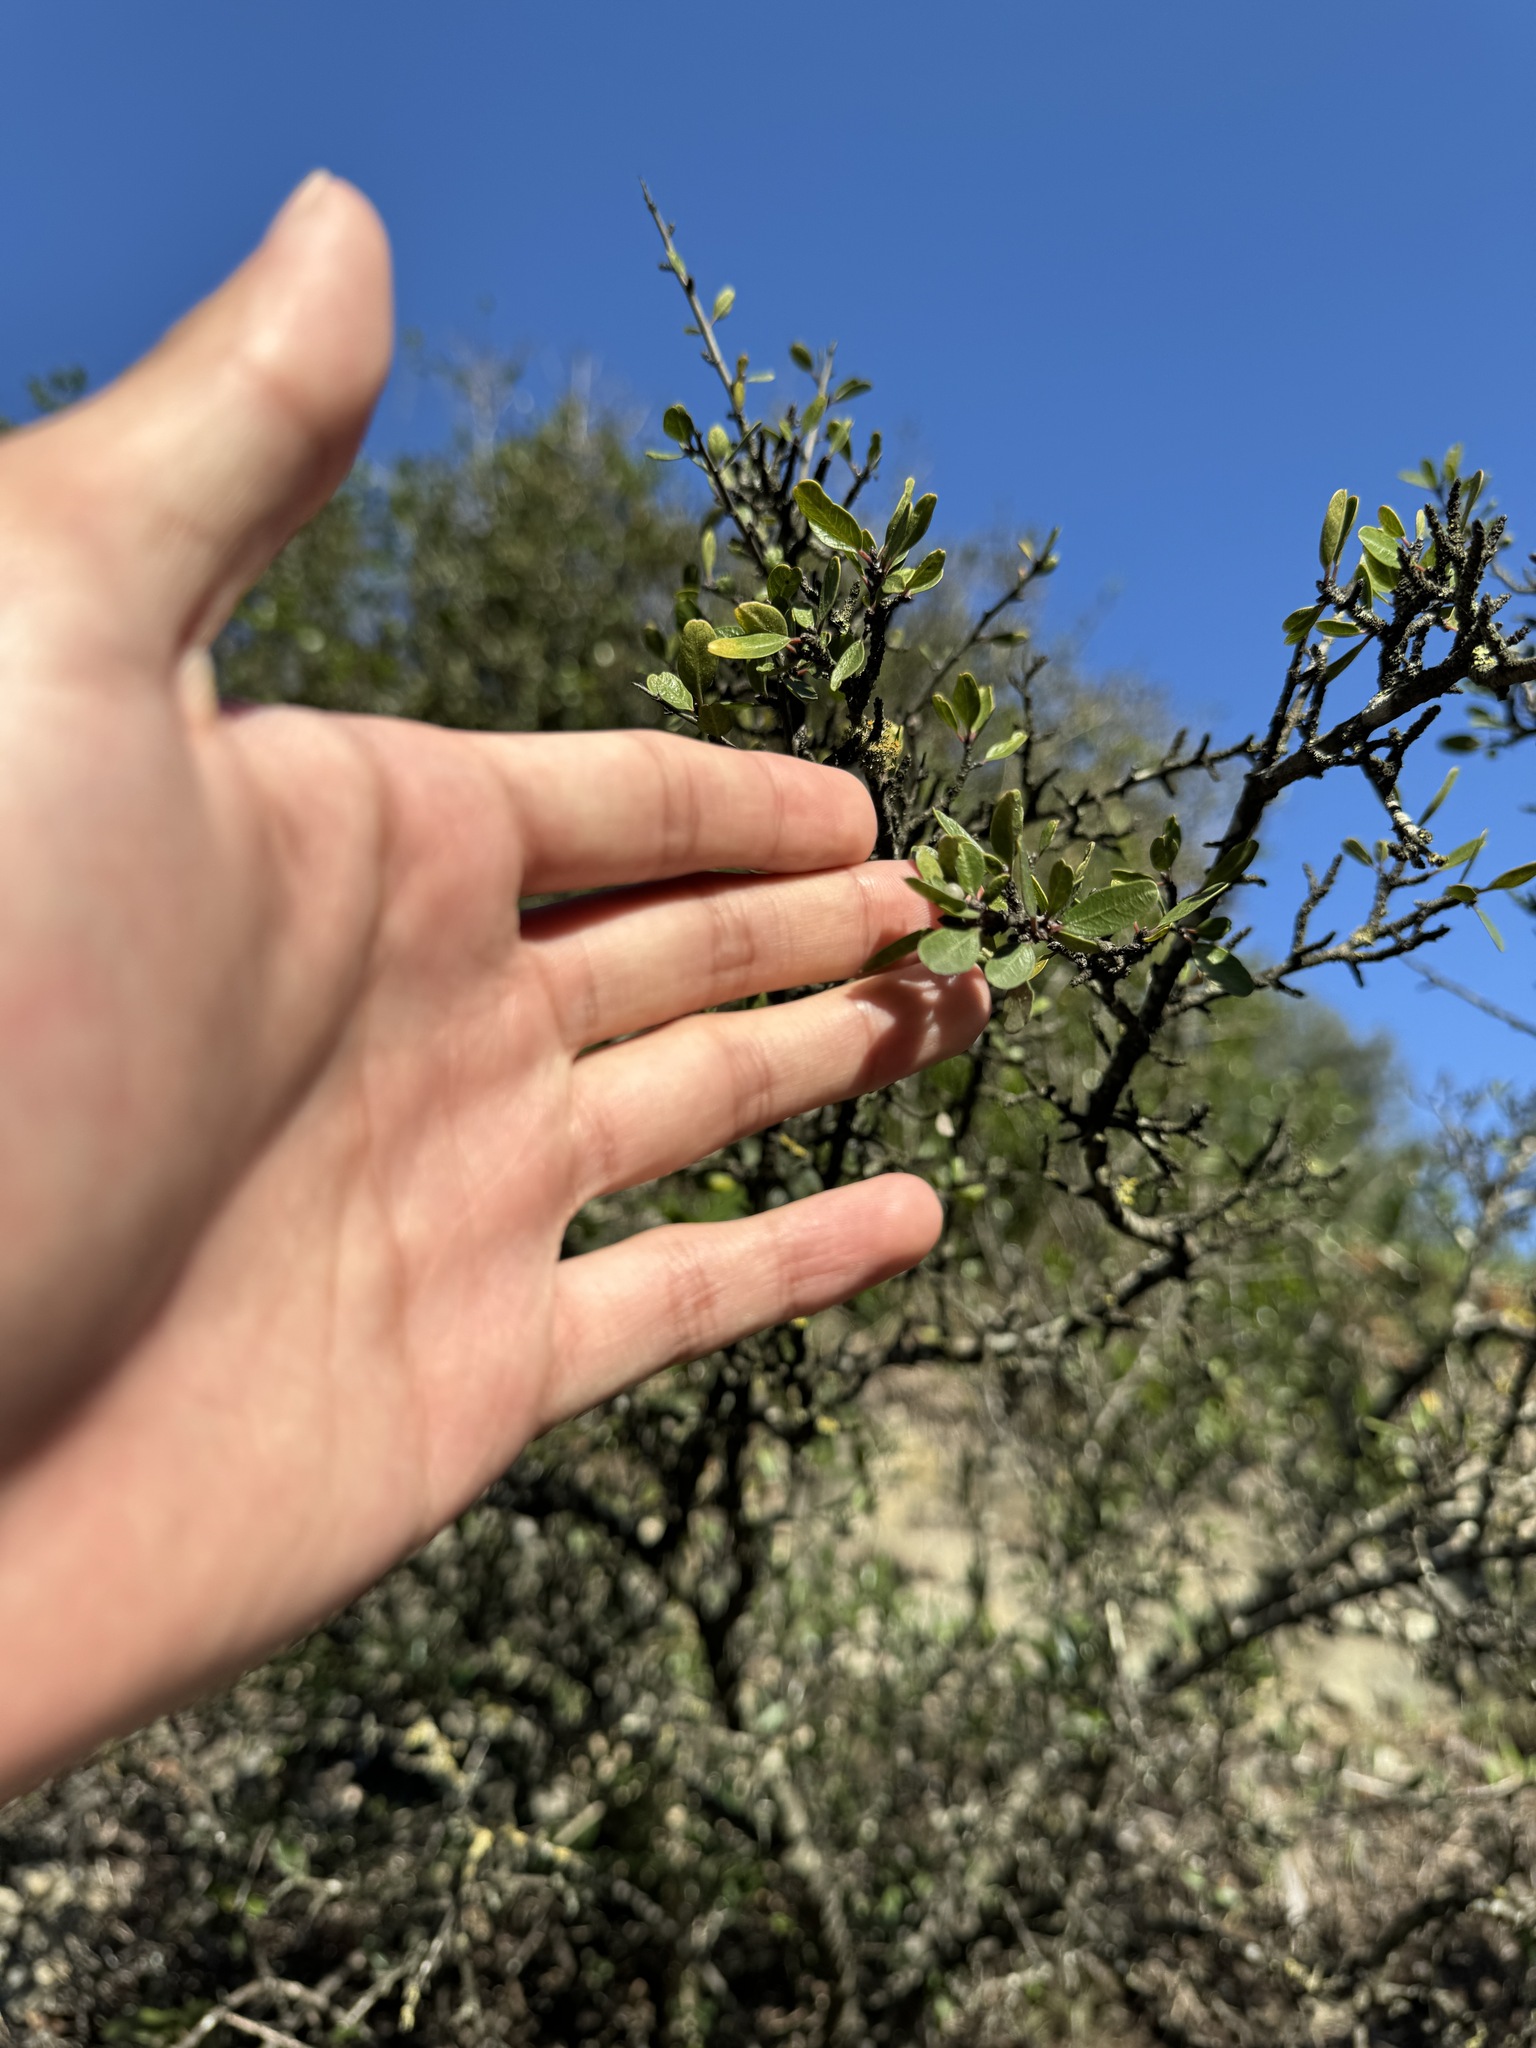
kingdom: Plantae
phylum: Tracheophyta
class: Magnoliopsida
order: Rosales
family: Rhamnaceae
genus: Rhamnus
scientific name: Rhamnus oleoides
